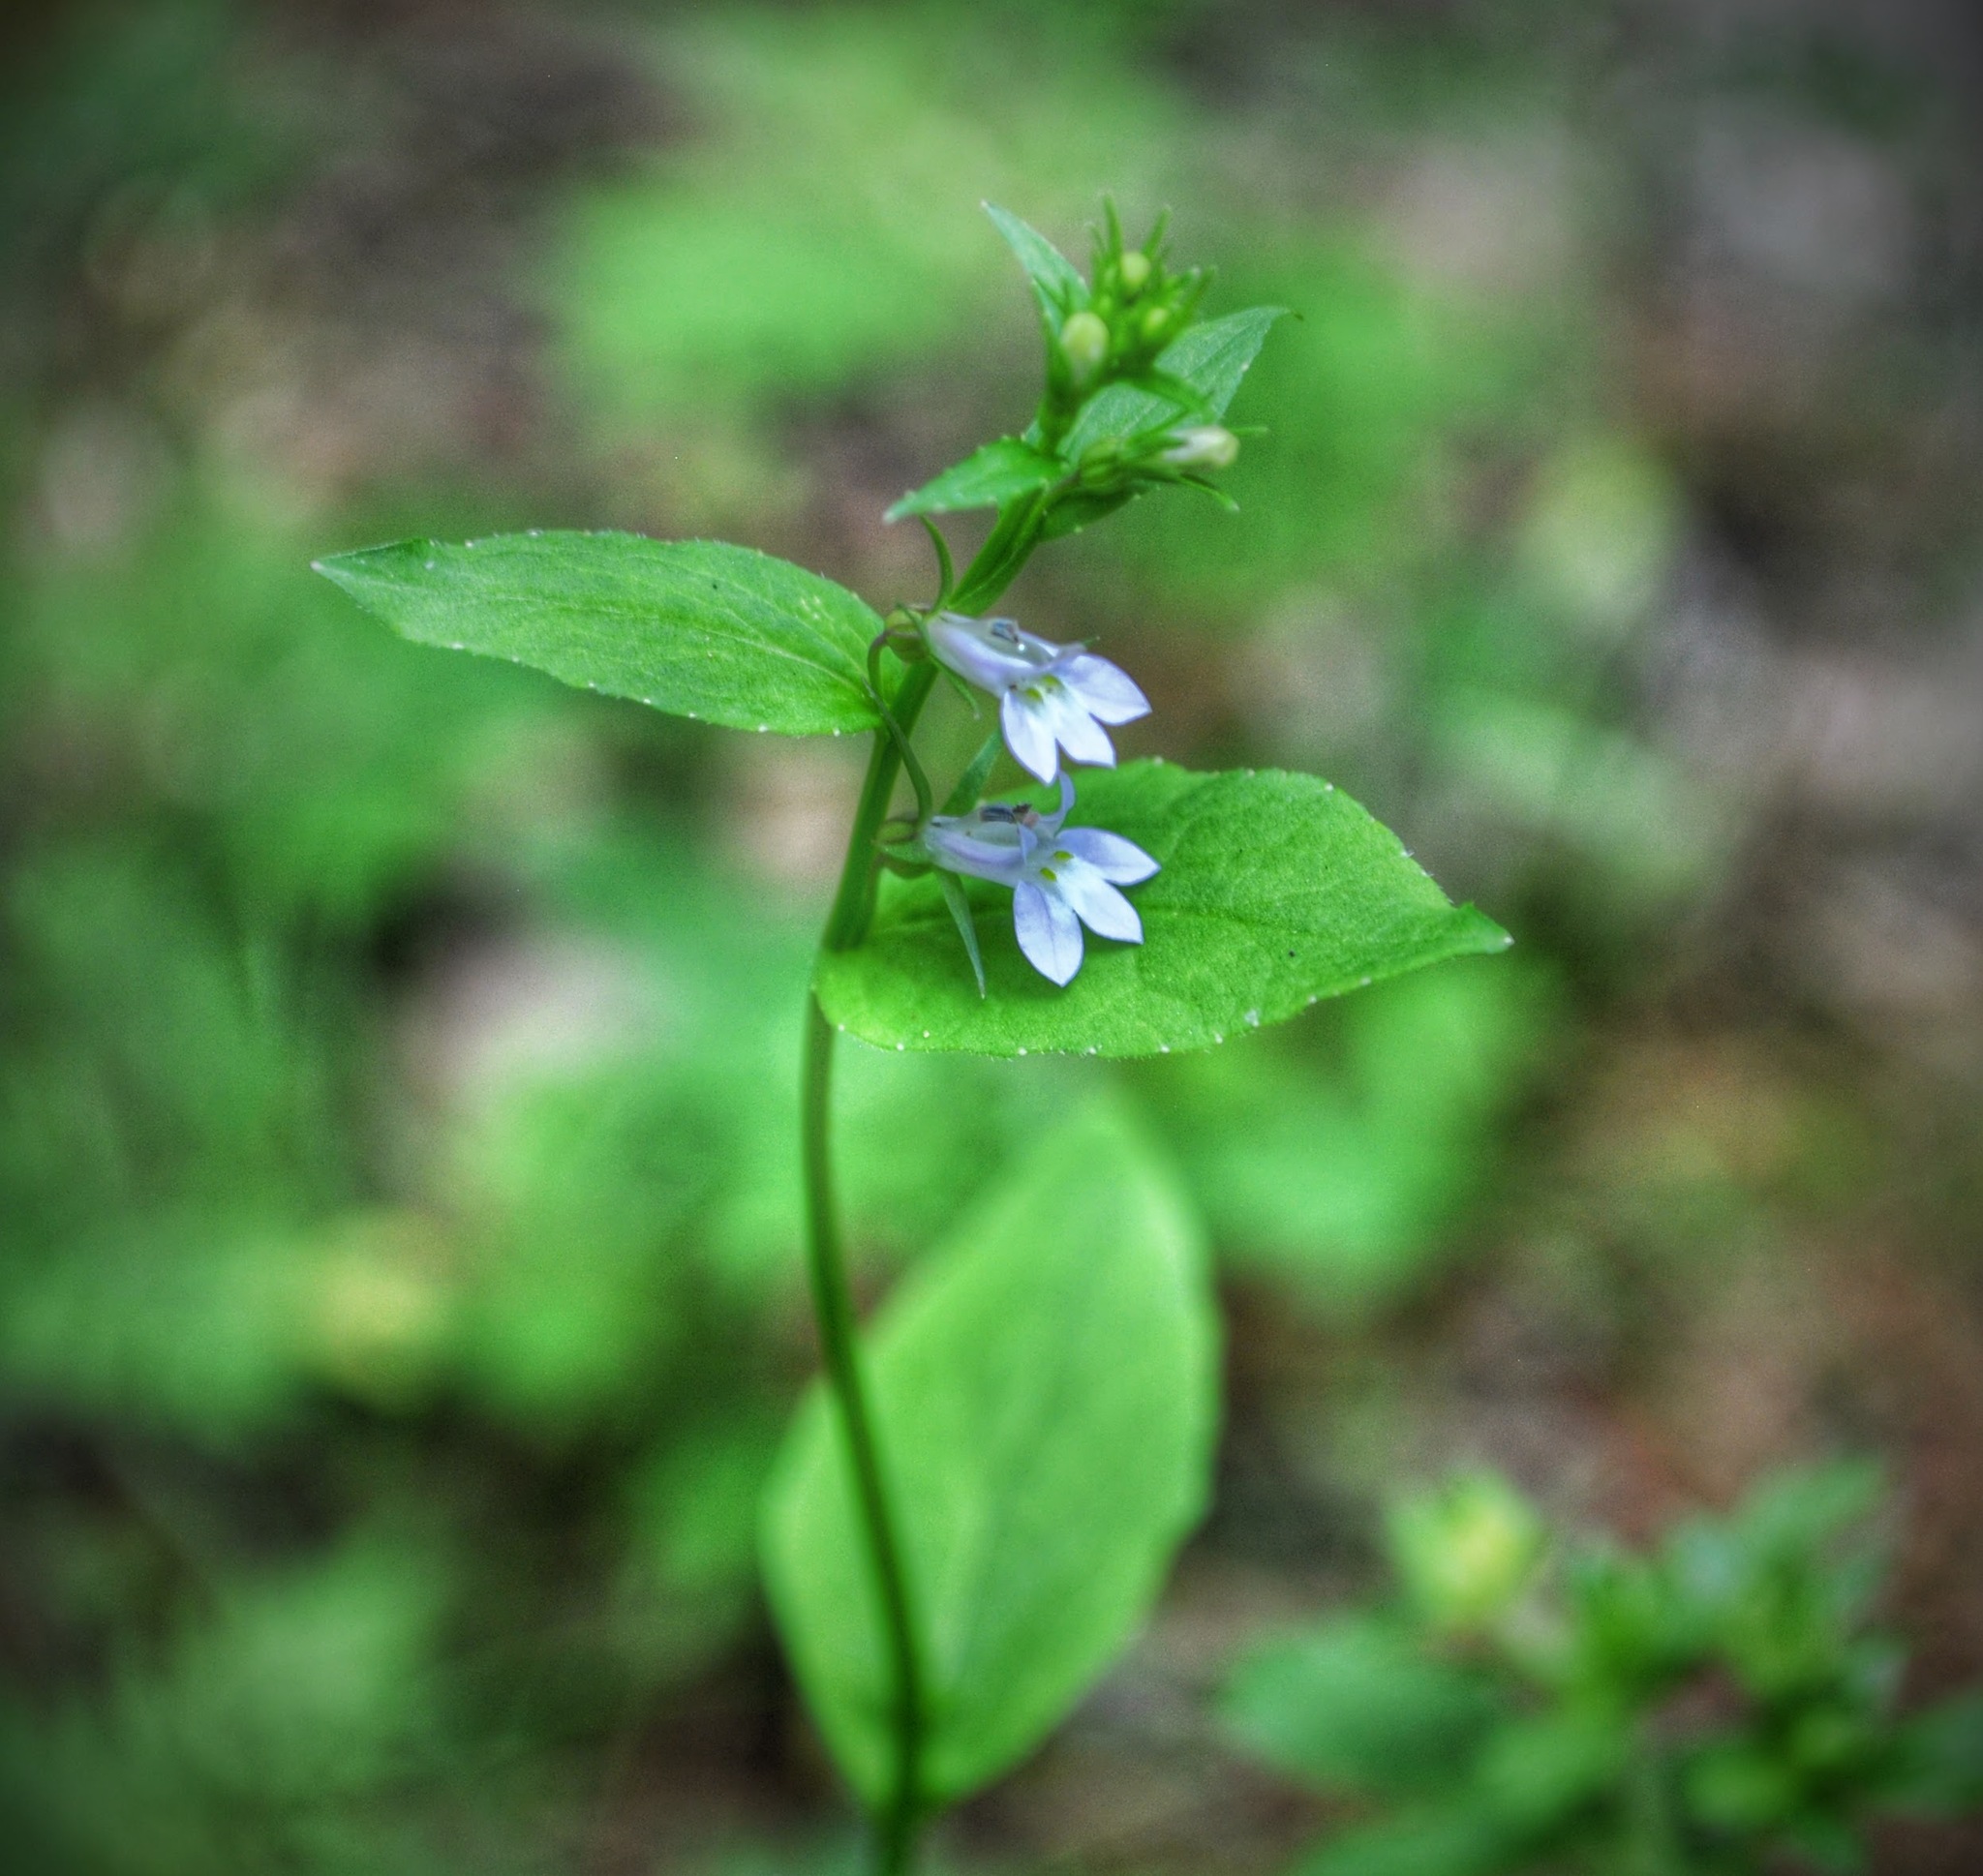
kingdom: Plantae
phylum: Tracheophyta
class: Magnoliopsida
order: Asterales
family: Campanulaceae
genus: Lobelia
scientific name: Lobelia inflata
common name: Indian tobacco
